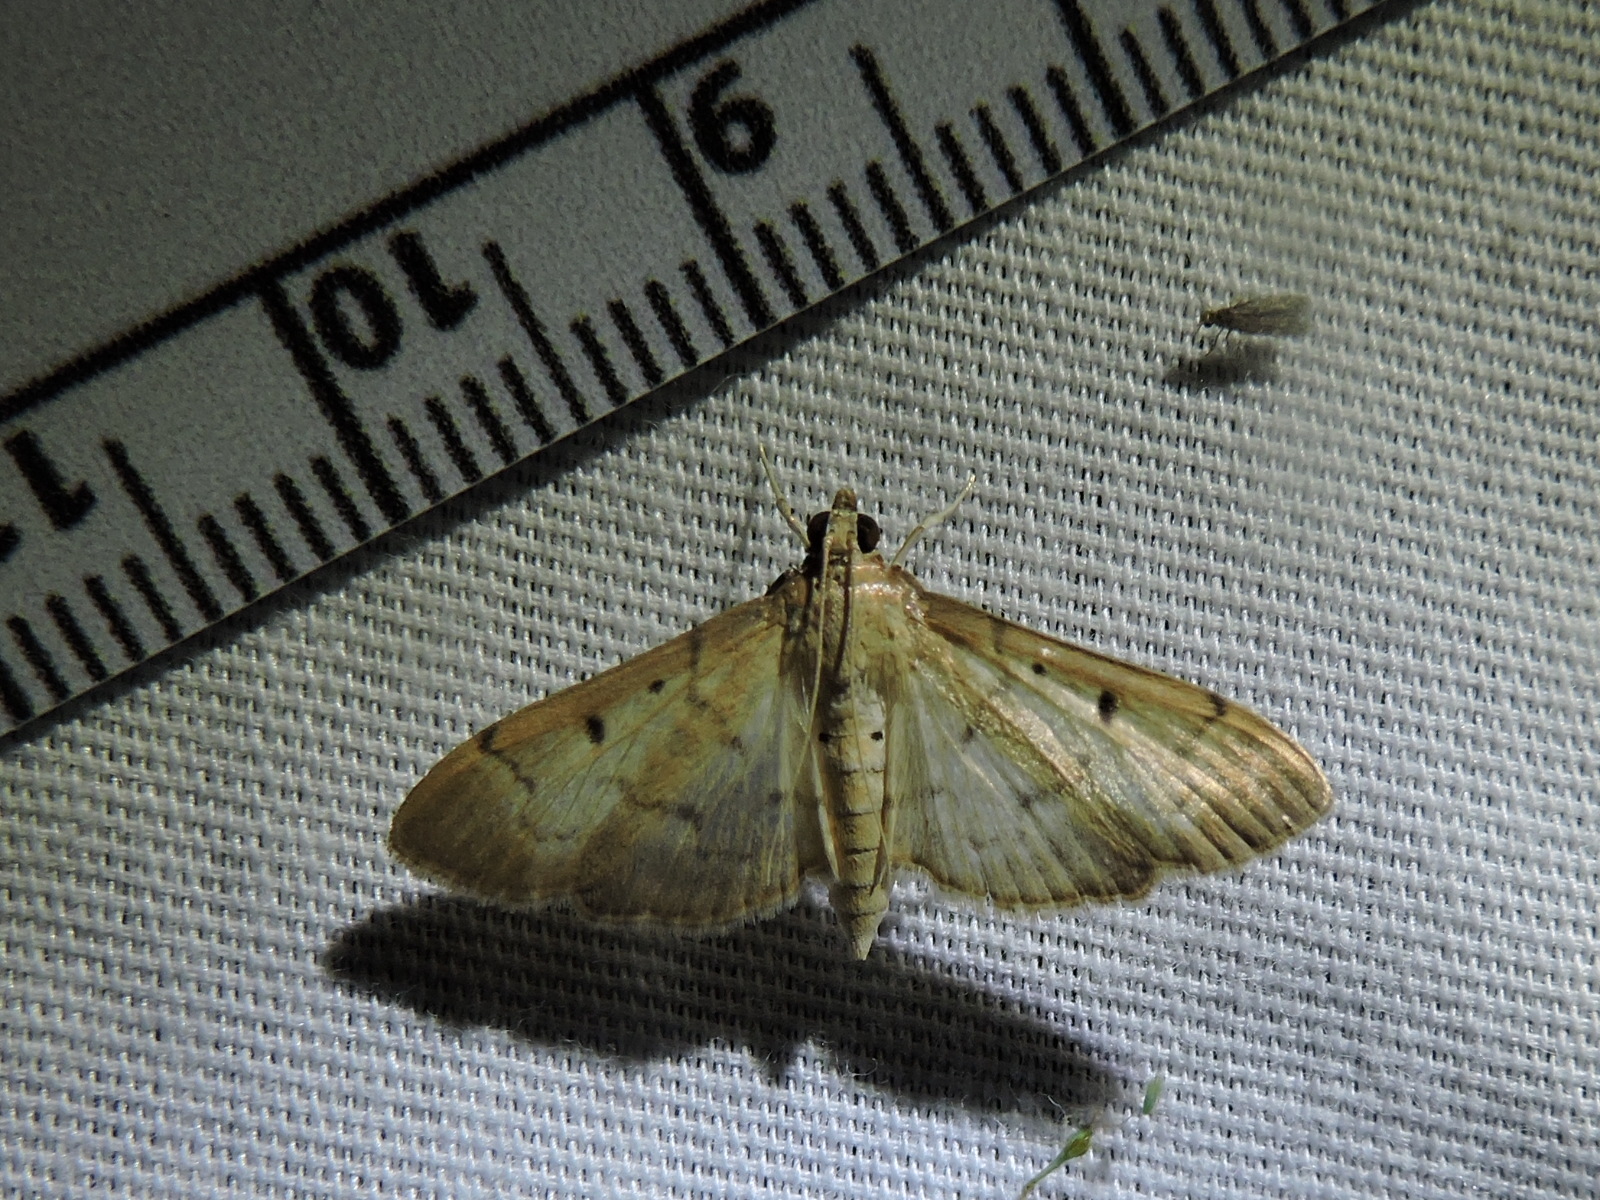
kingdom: Animalia
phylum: Arthropoda
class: Insecta
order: Lepidoptera
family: Crambidae
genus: Herpetogramma
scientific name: Herpetogramma bipunctalis
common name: Southern beet webworm
